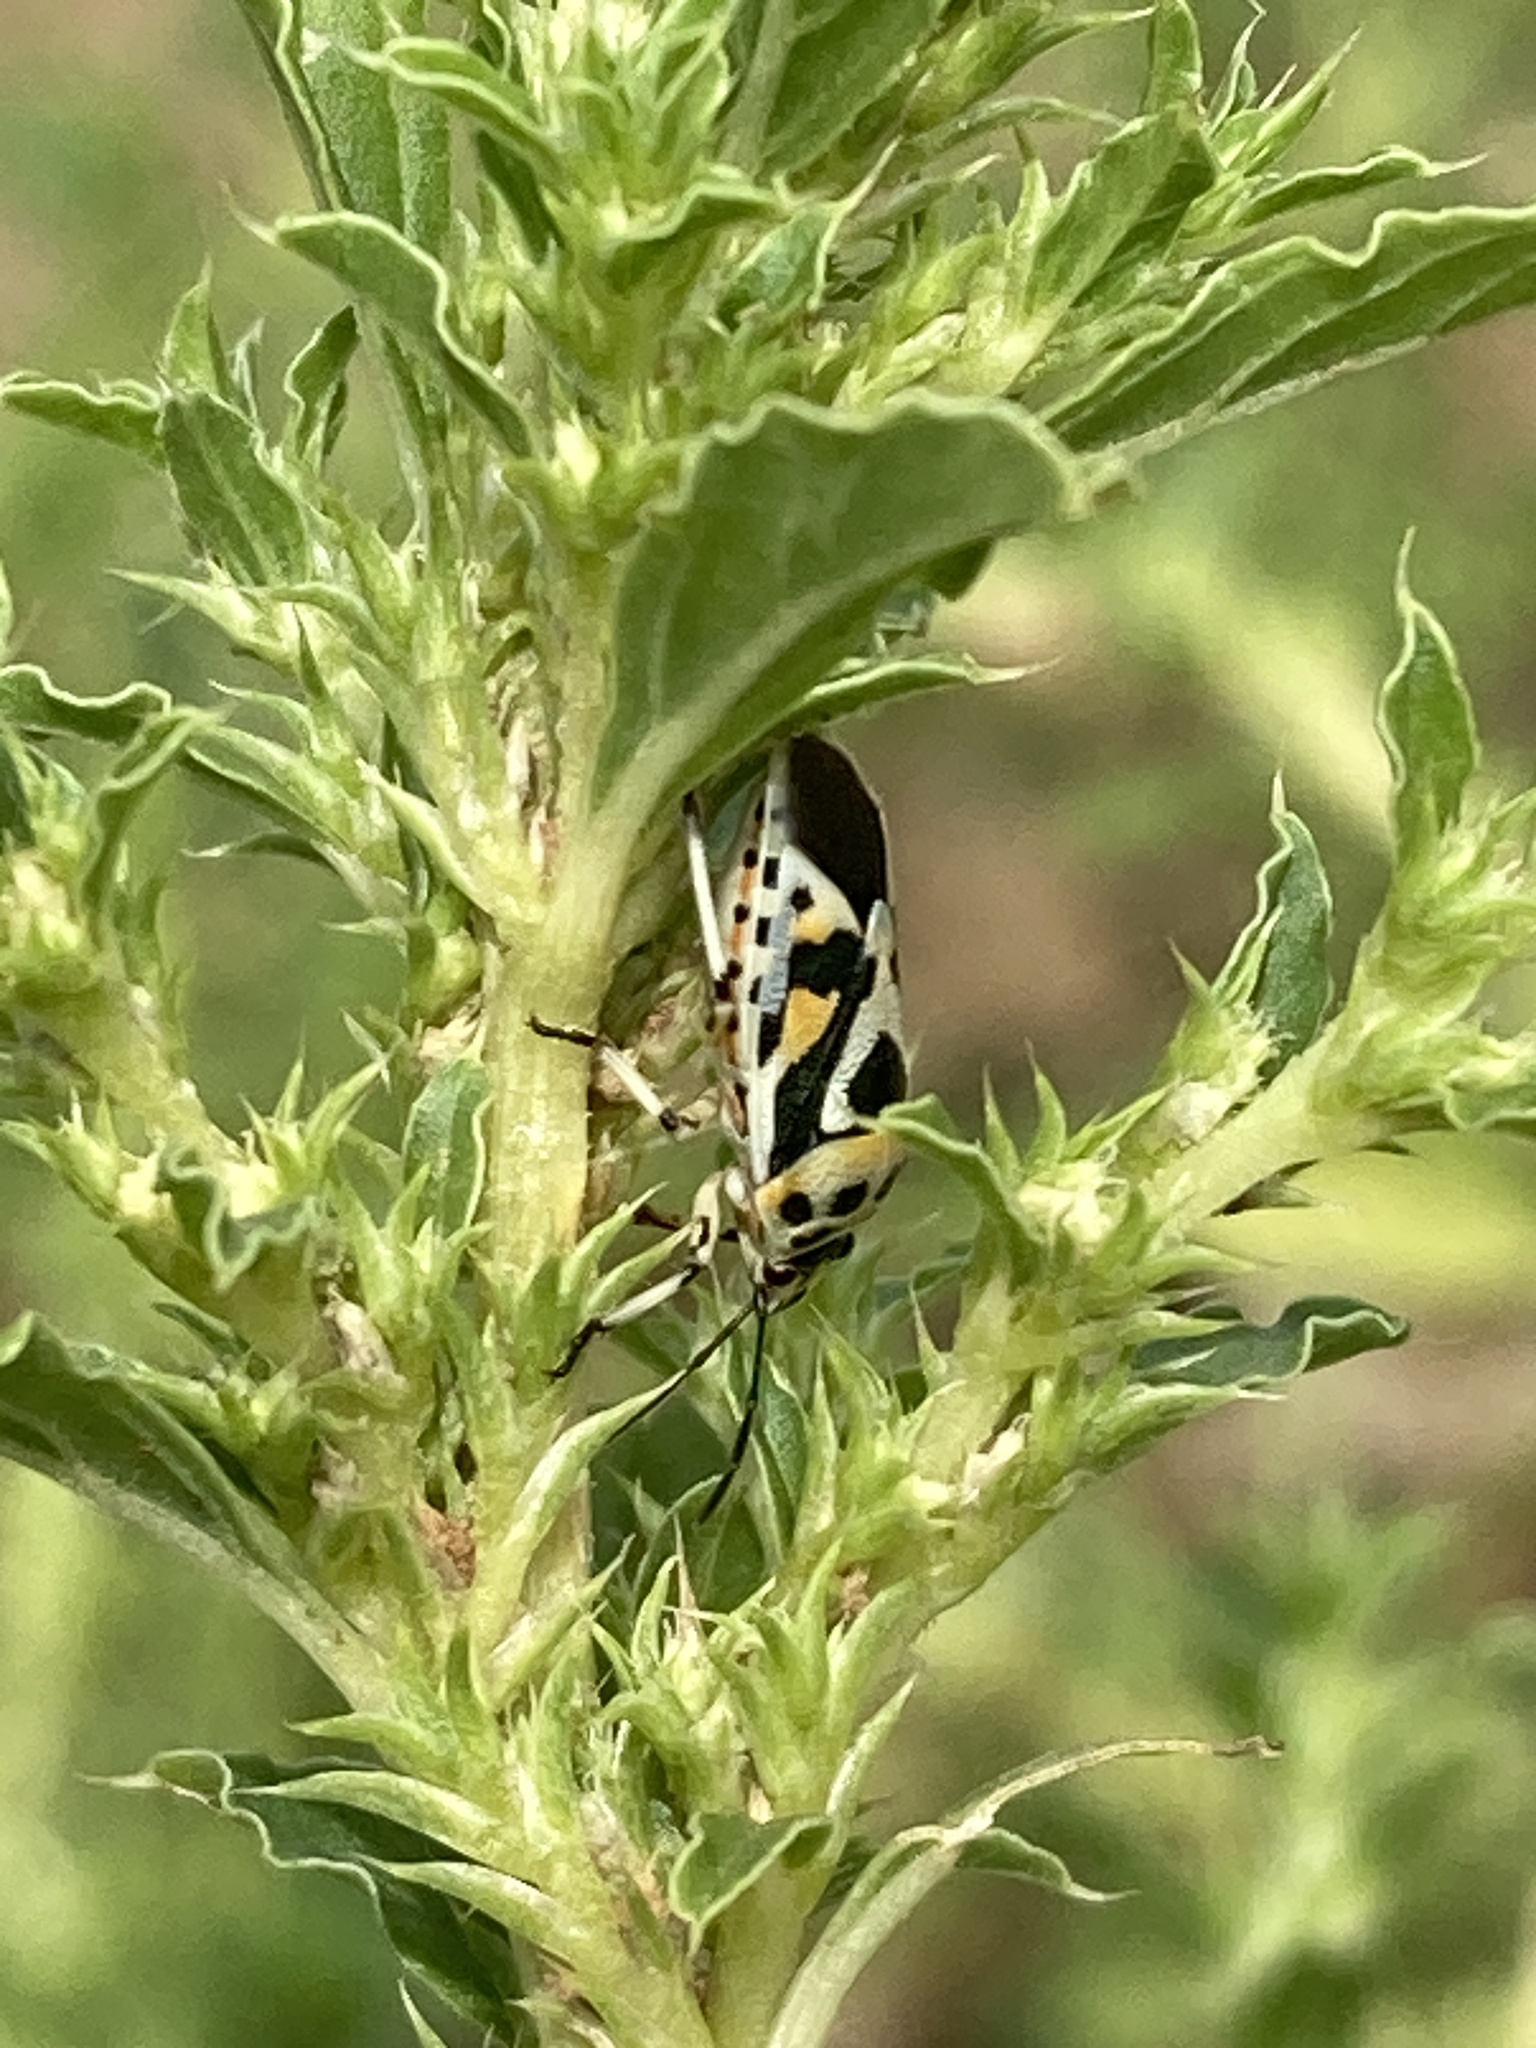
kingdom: Animalia
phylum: Arthropoda
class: Insecta
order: Hemiptera
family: Pentatomidae
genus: Eurydema
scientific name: Eurydema ornata
